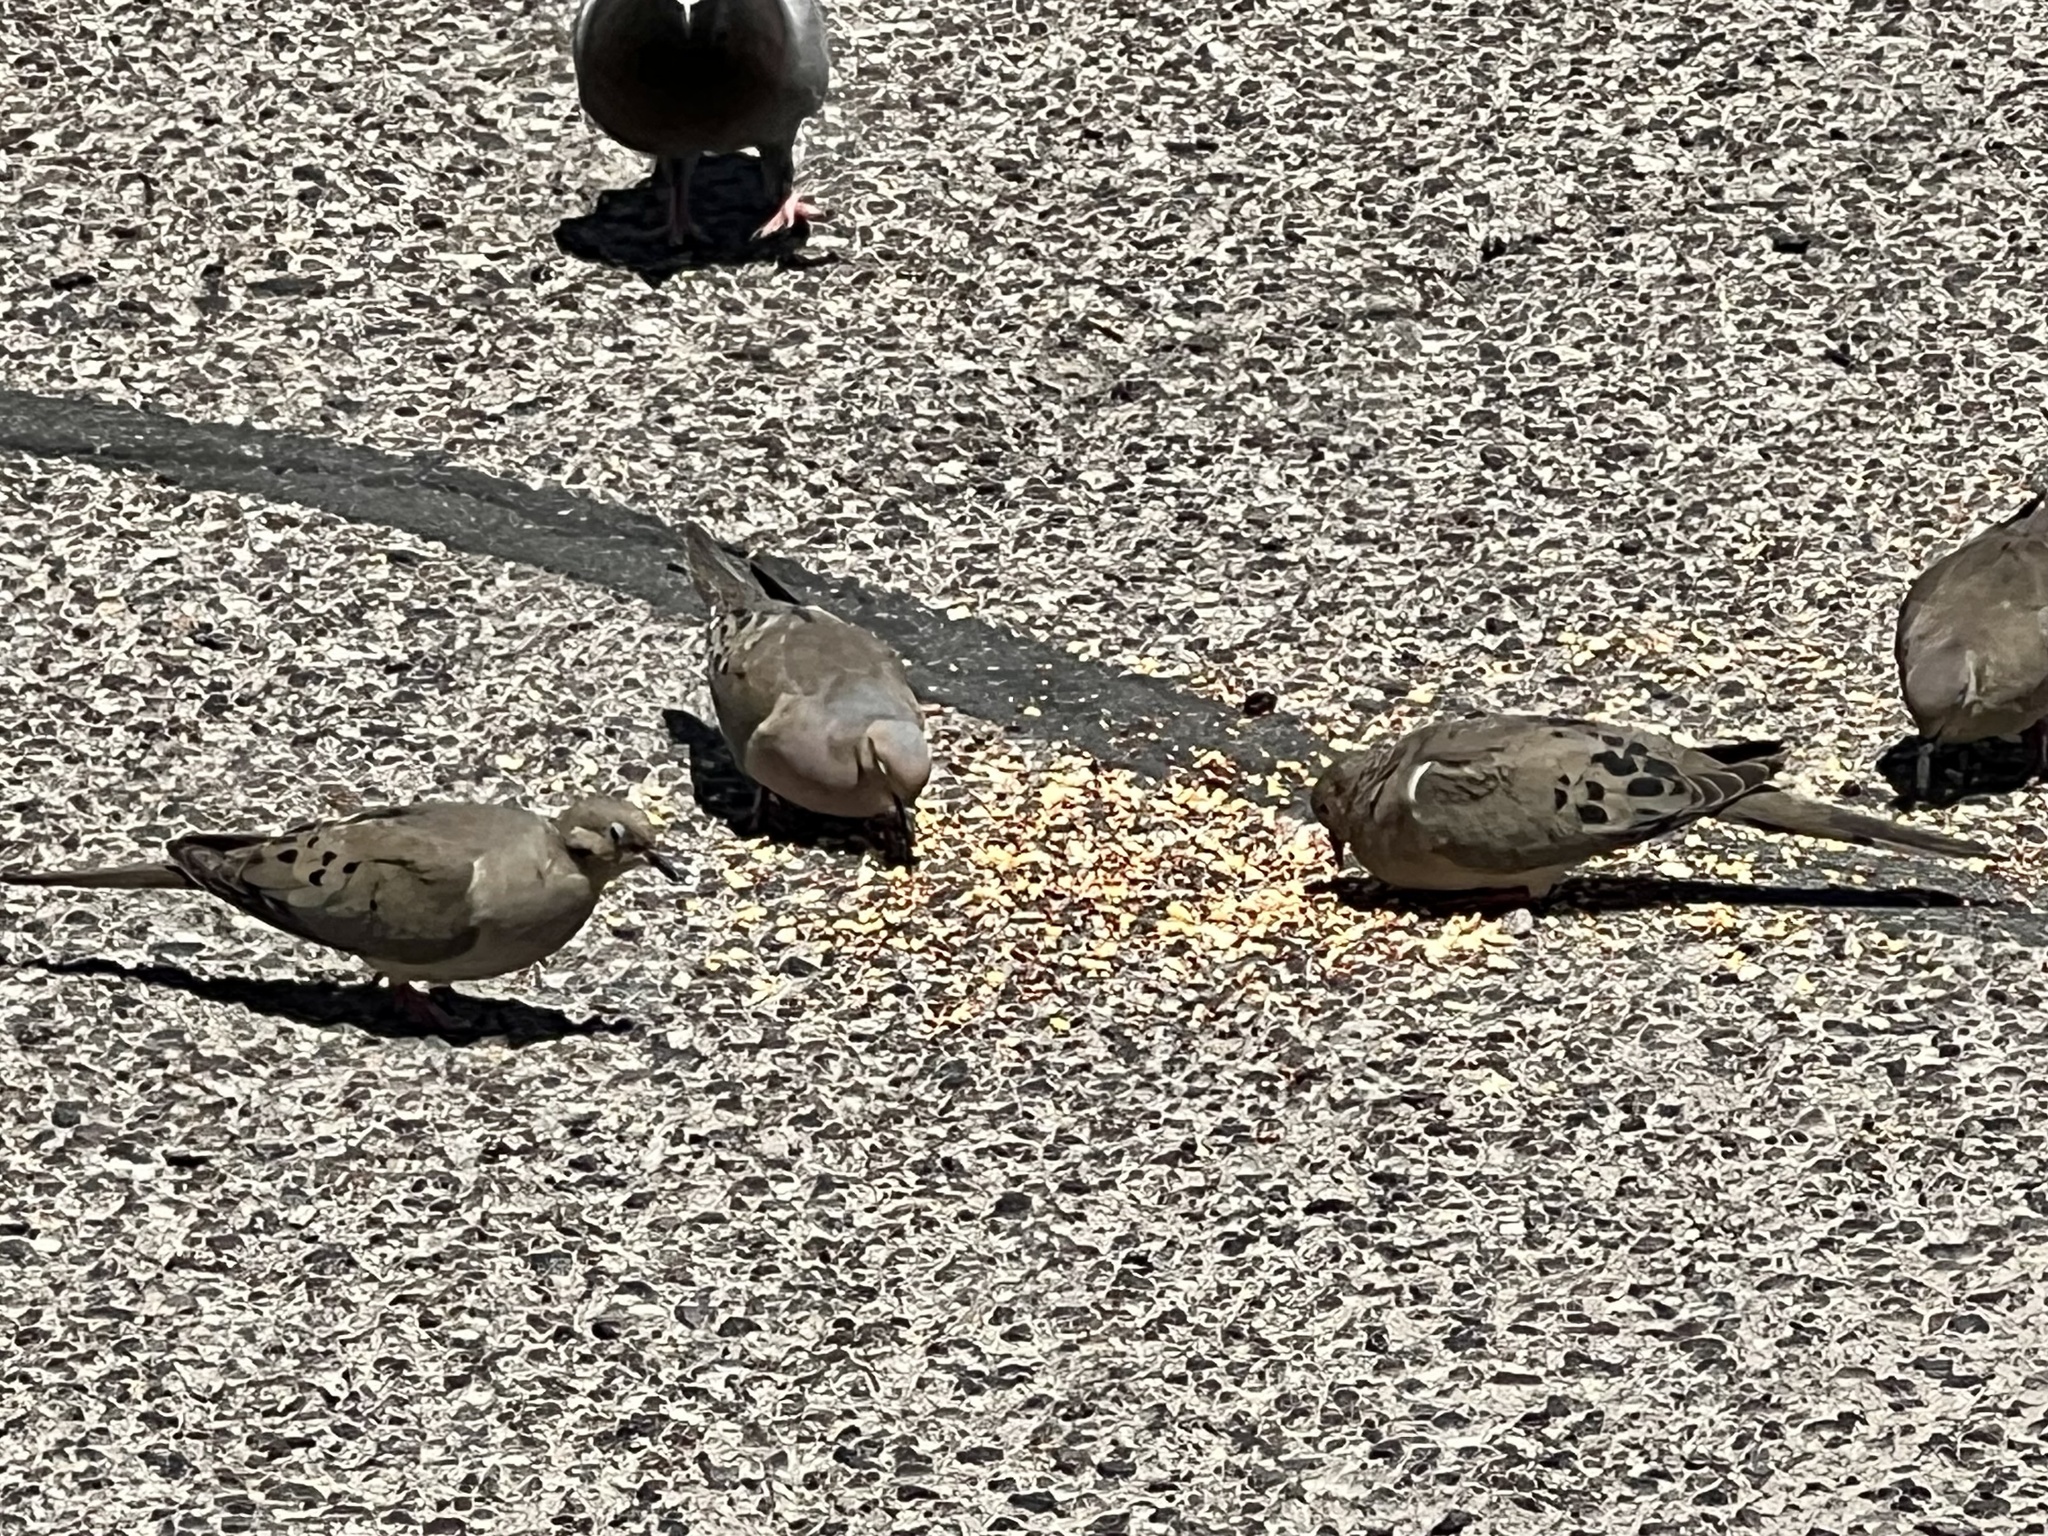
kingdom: Animalia
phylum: Chordata
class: Aves
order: Columbiformes
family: Columbidae
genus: Zenaida
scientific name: Zenaida macroura
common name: Mourning dove
